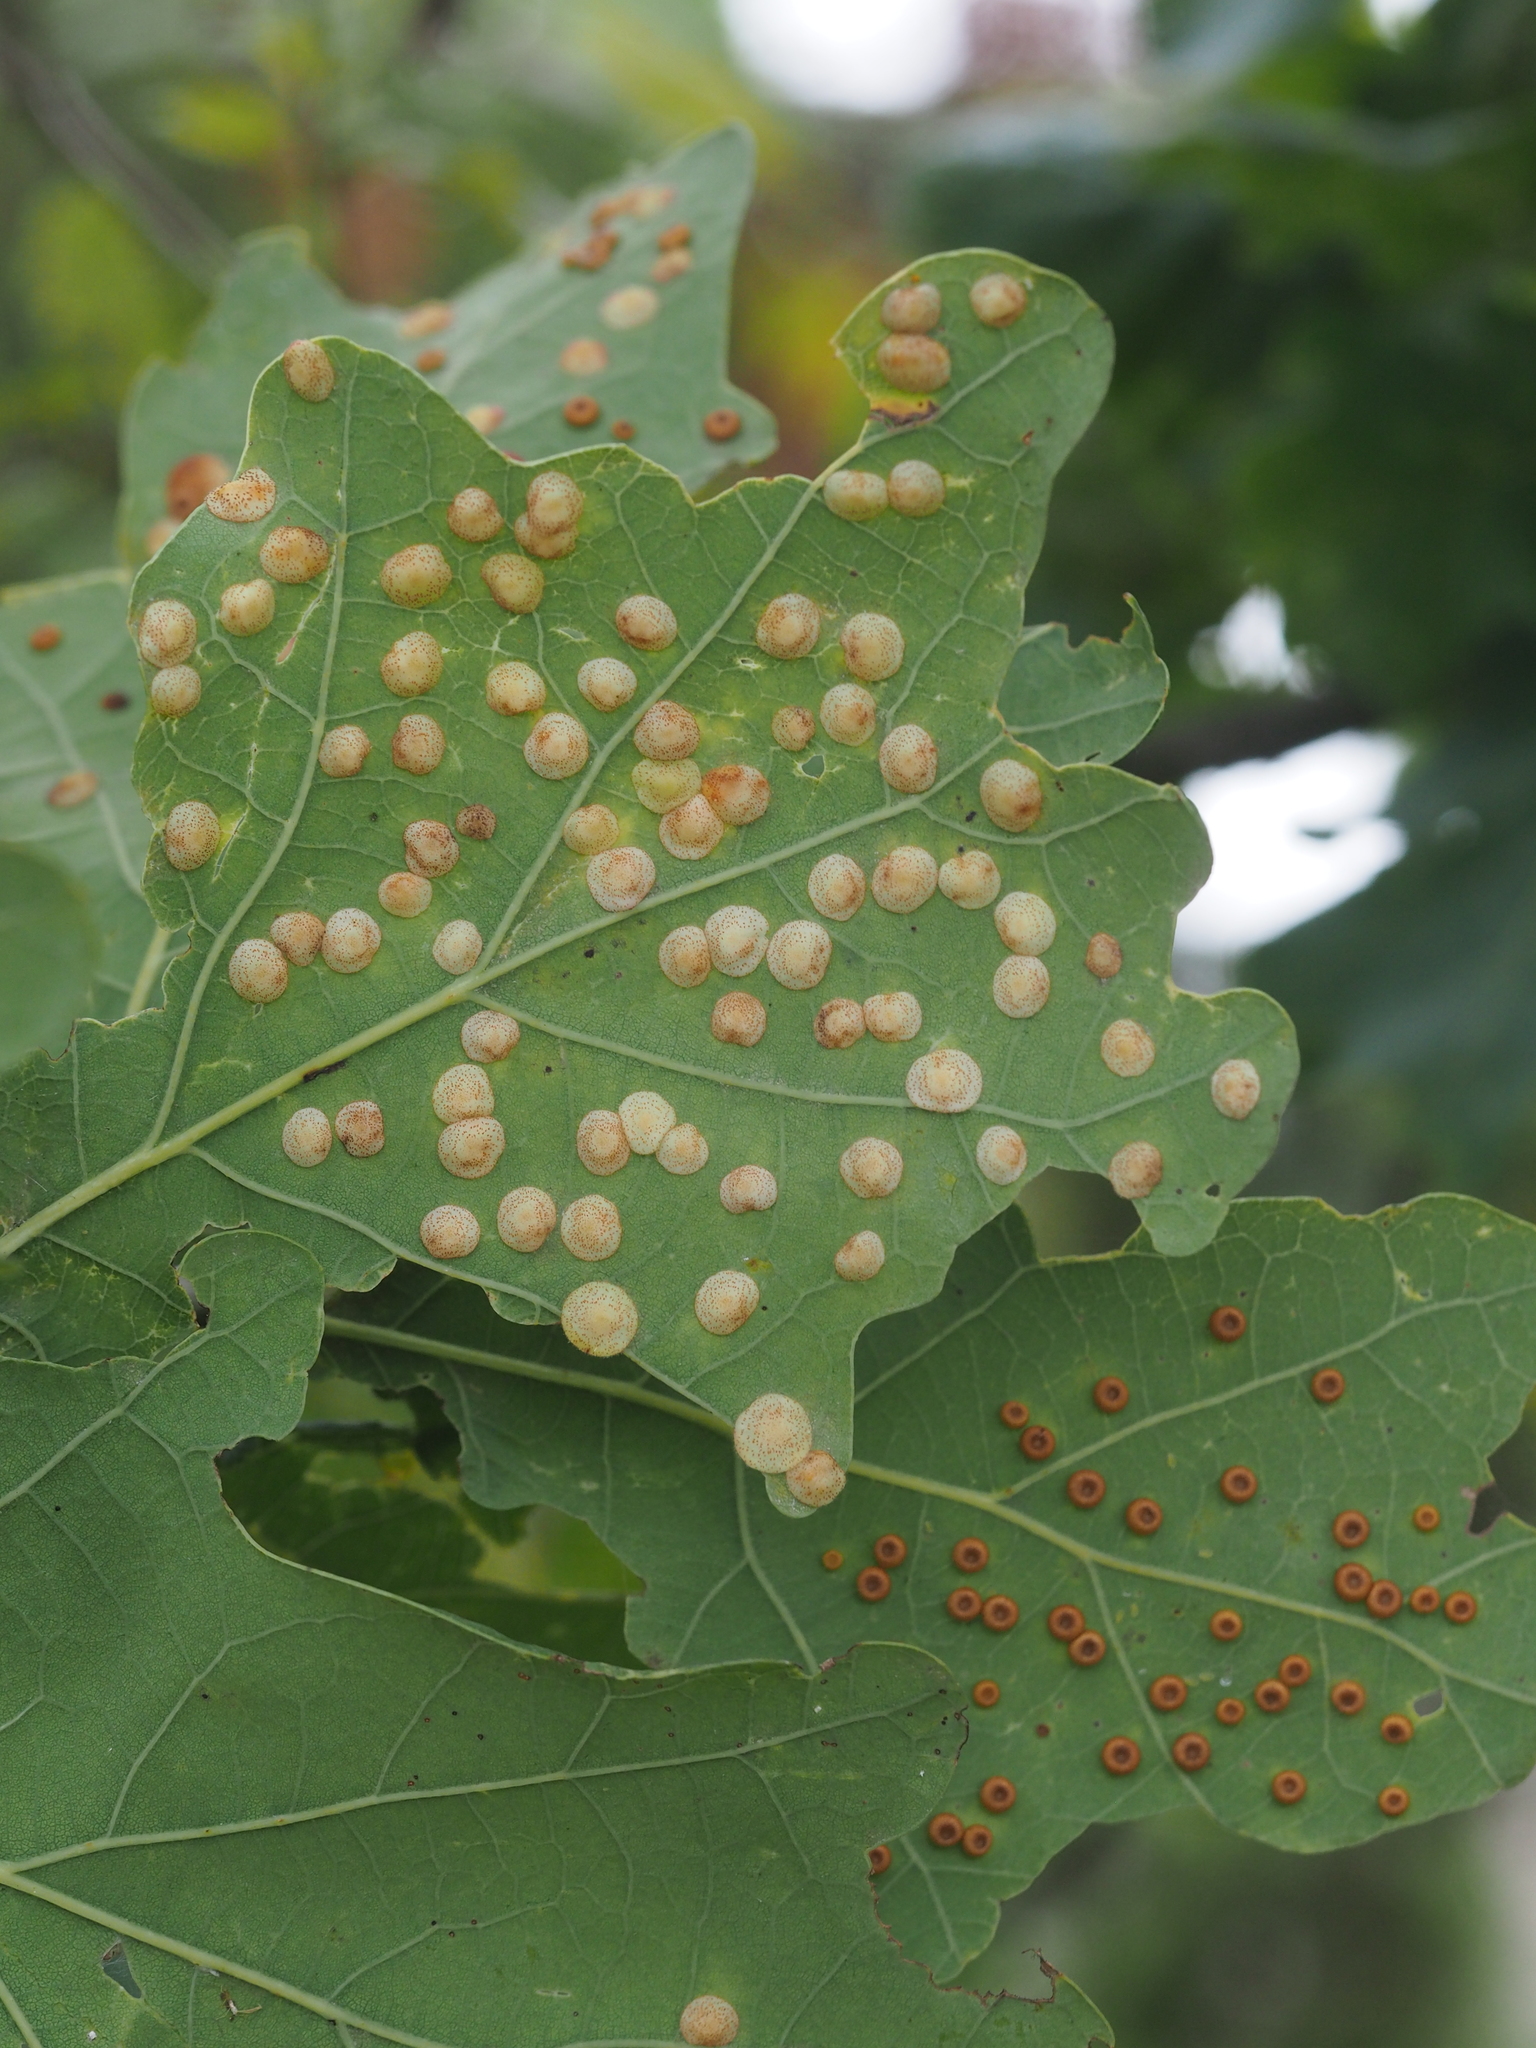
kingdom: Animalia
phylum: Arthropoda
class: Insecta
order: Hymenoptera
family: Cynipidae
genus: Neuroterus
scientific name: Neuroterus quercusbaccarum
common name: Common spangle gall
